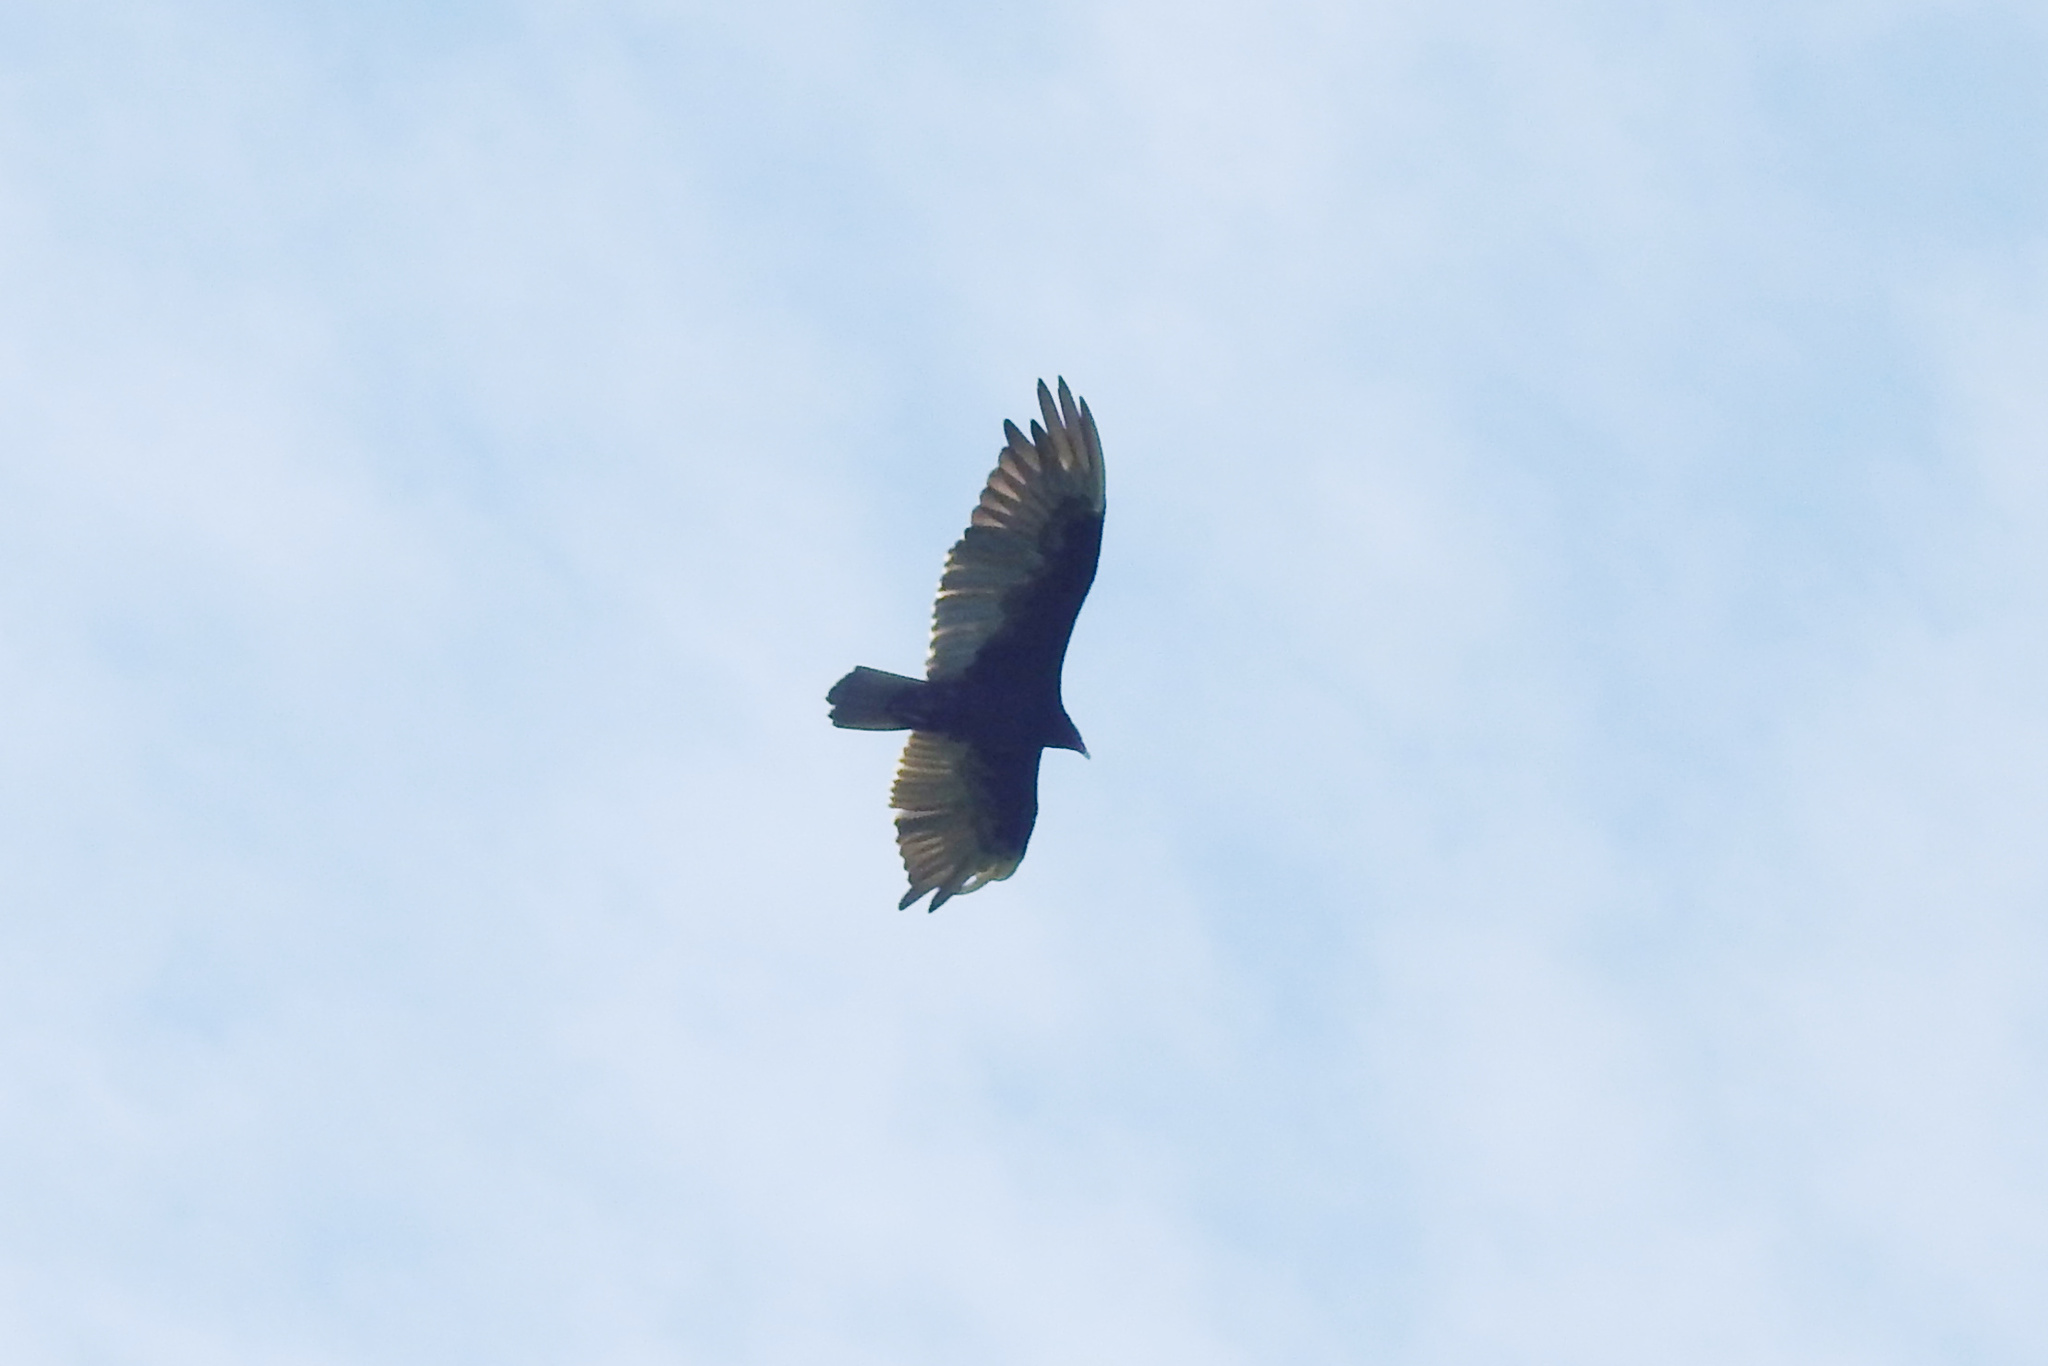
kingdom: Animalia
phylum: Chordata
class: Aves
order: Accipitriformes
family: Cathartidae
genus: Cathartes
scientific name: Cathartes aura
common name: Turkey vulture
